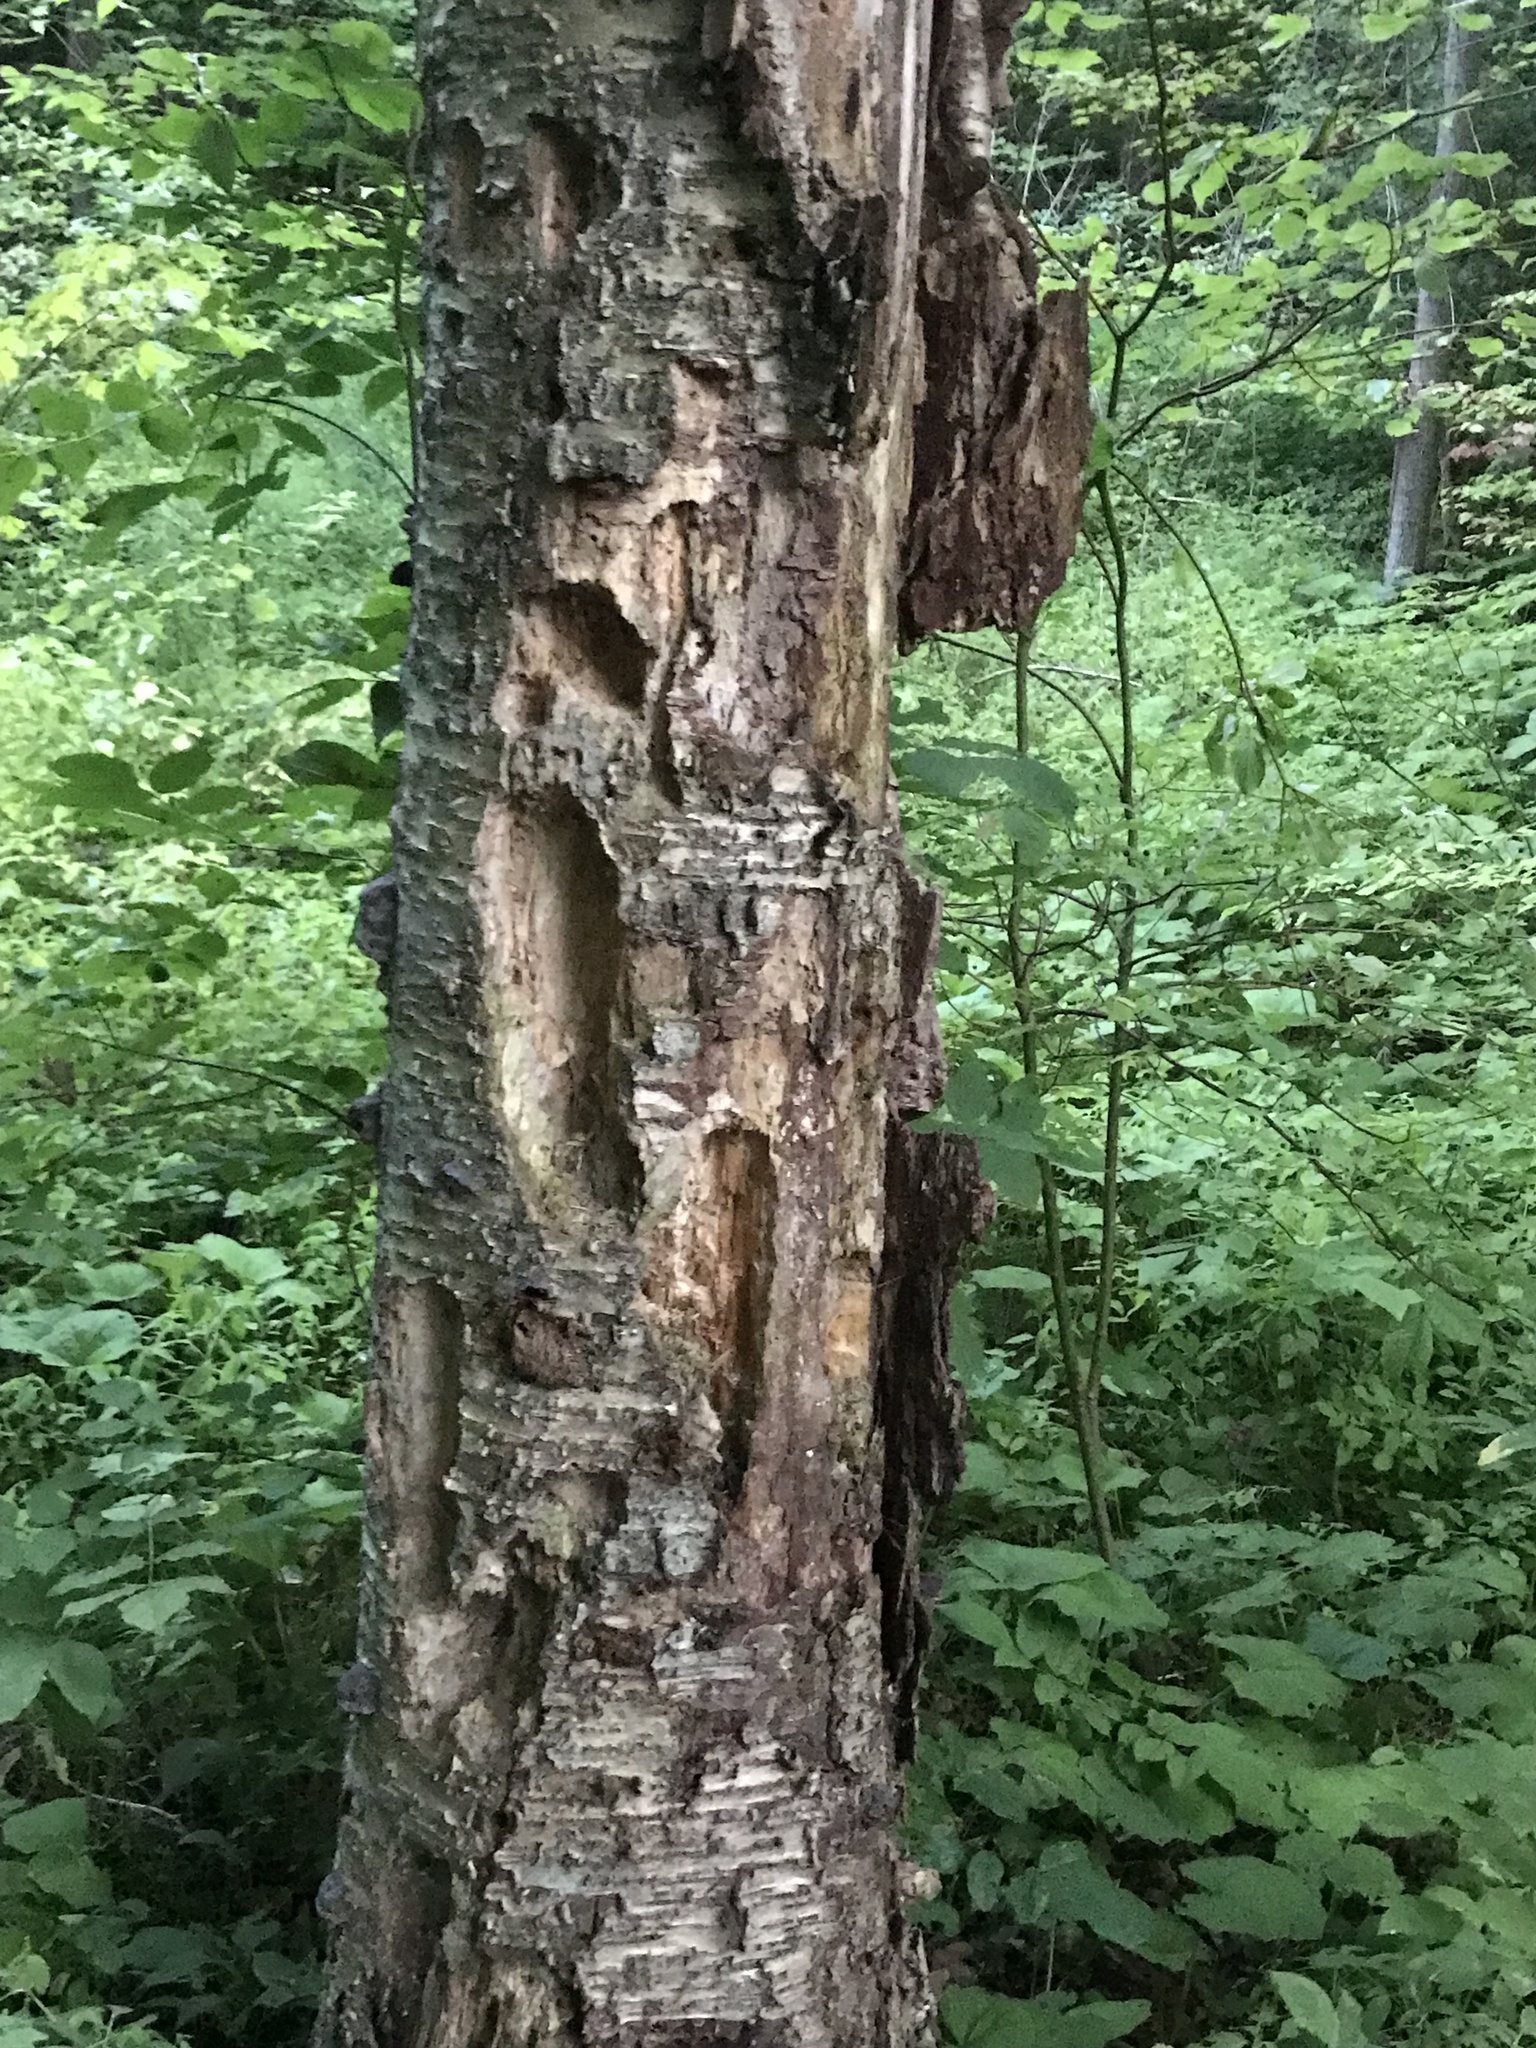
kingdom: Animalia
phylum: Chordata
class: Aves
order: Piciformes
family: Picidae
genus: Dryocopus
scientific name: Dryocopus pileatus
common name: Pileated woodpecker
